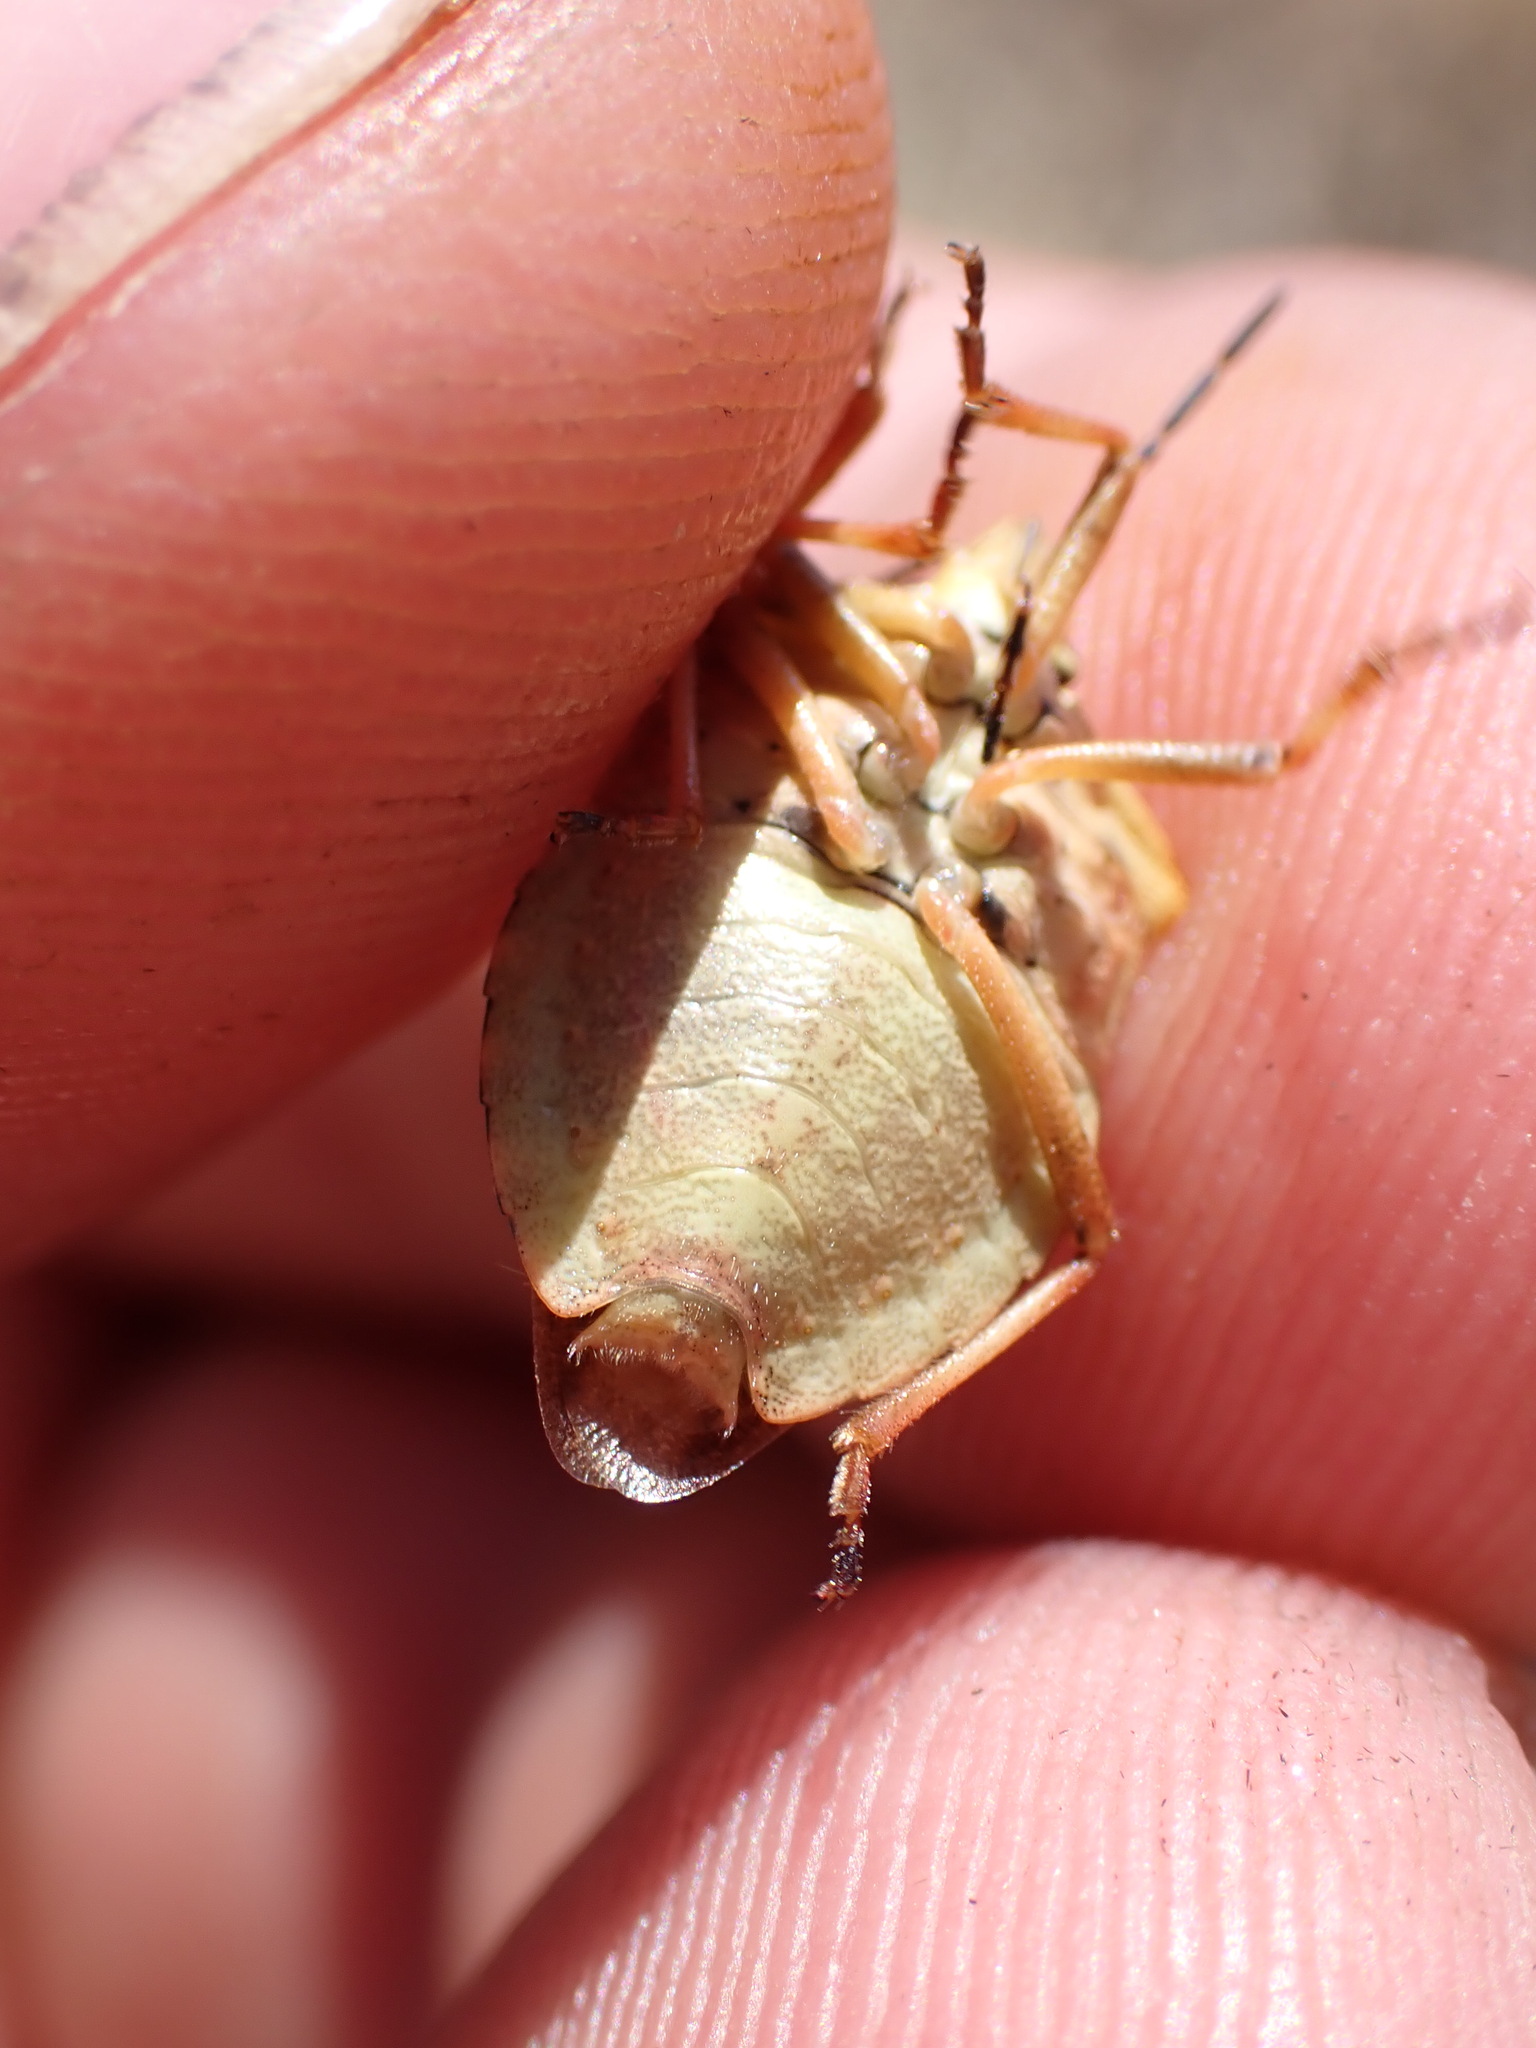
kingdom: Animalia
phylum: Arthropoda
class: Insecta
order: Hemiptera
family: Pentatomidae
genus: Carpocoris
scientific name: Carpocoris fuscispinus
